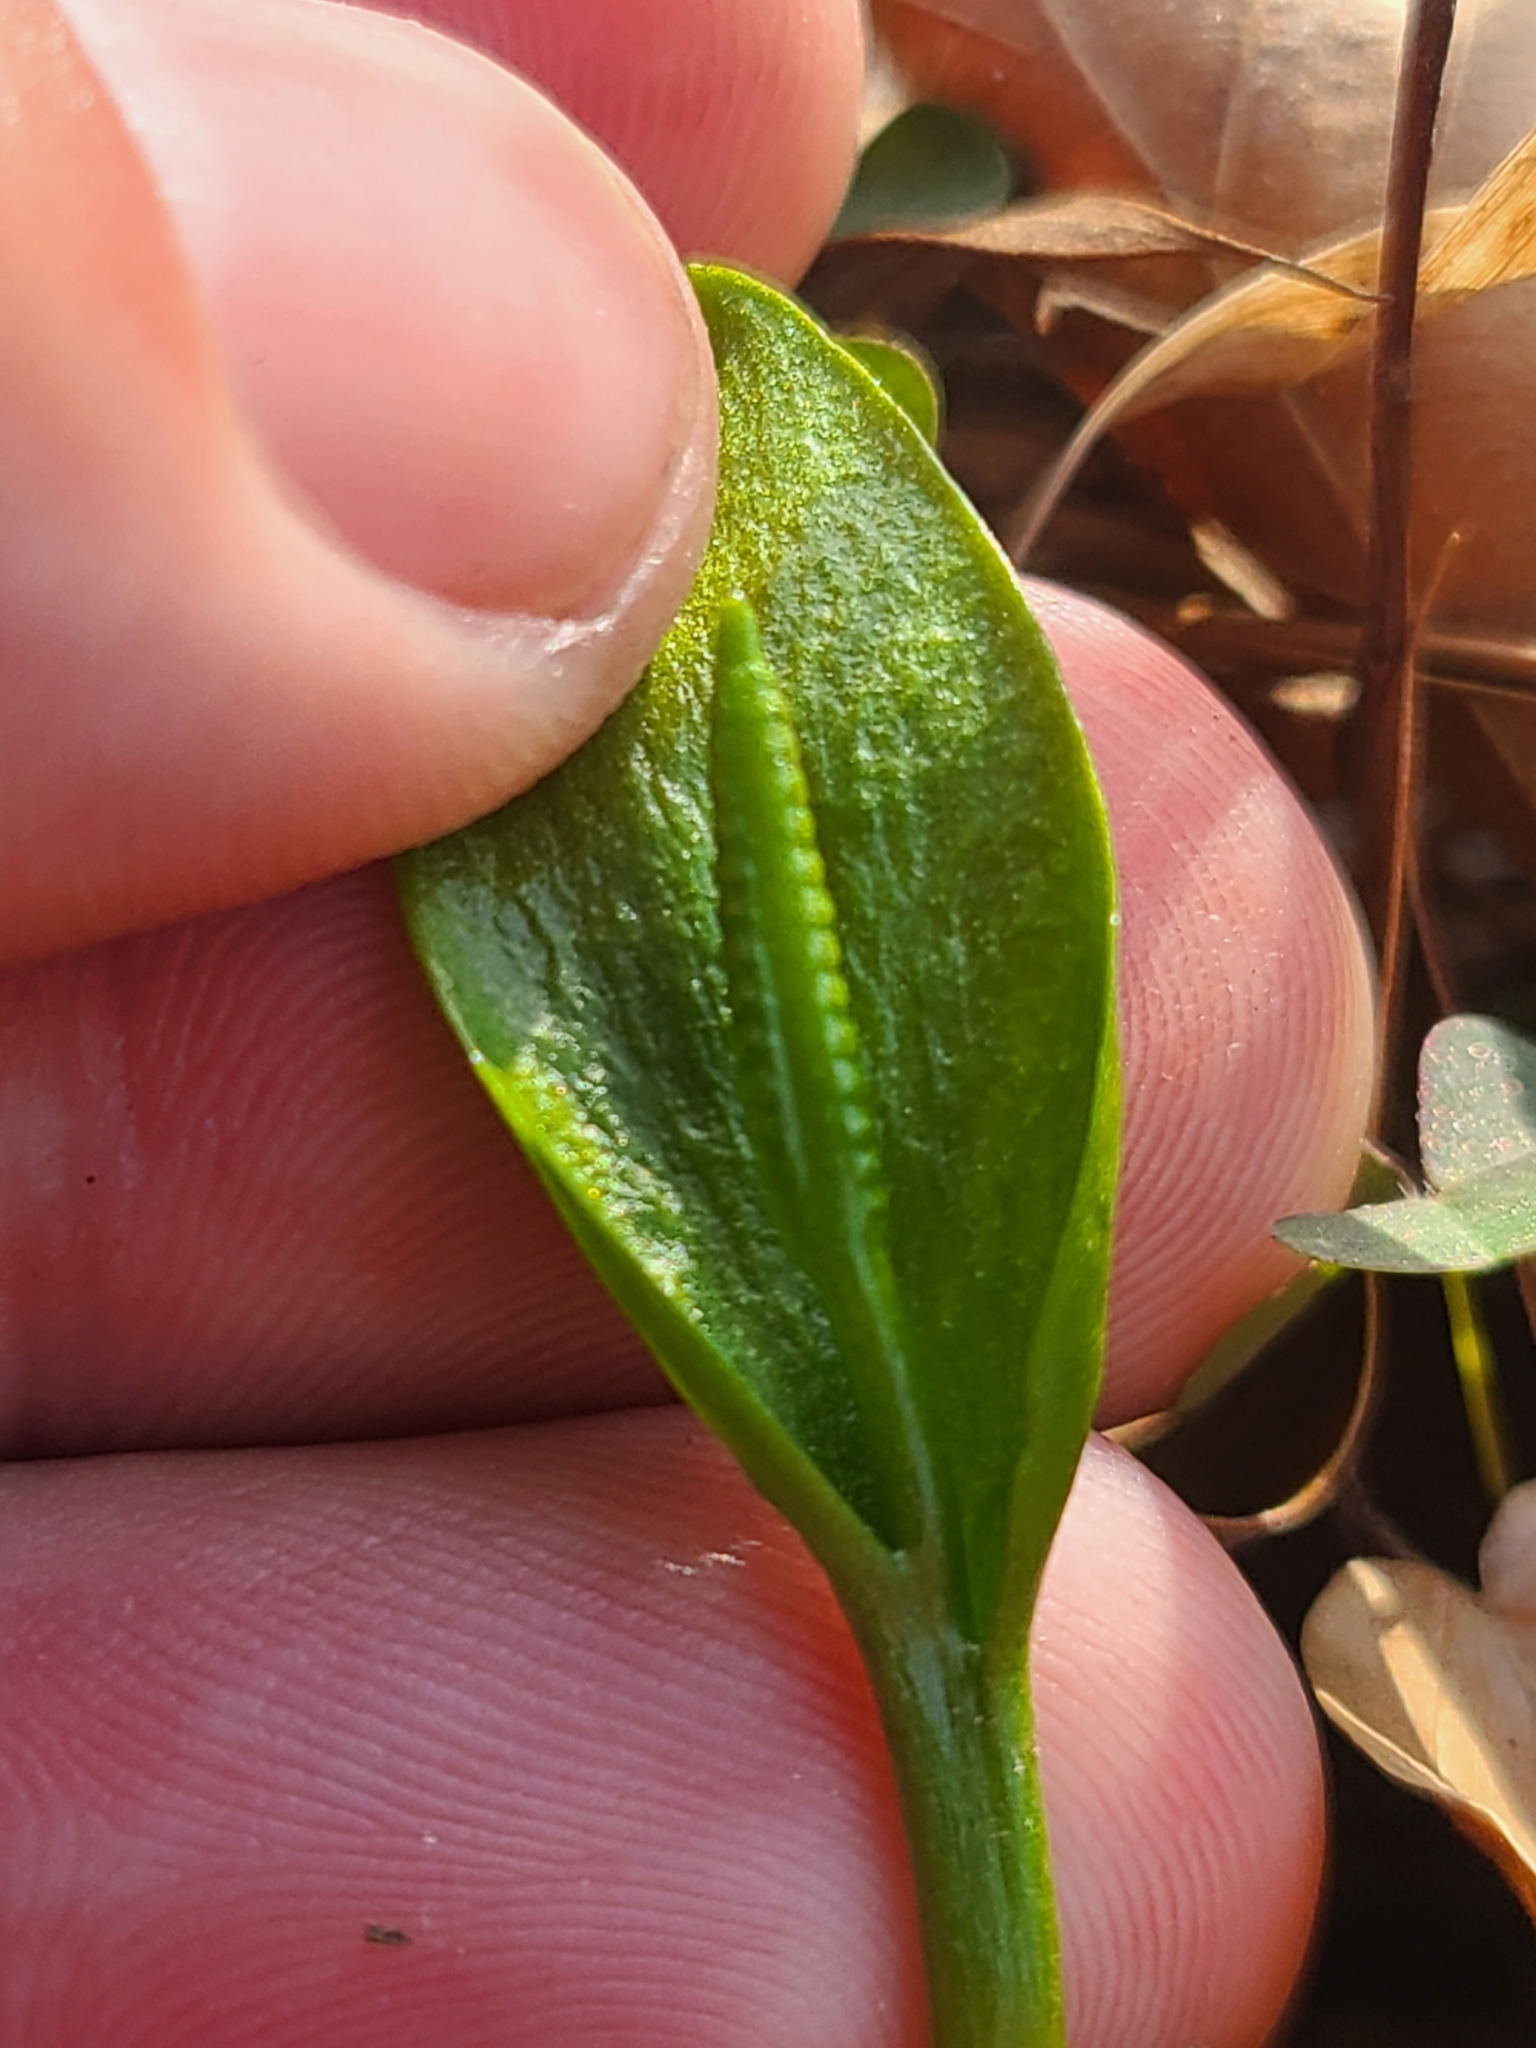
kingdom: Plantae
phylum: Tracheophyta
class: Polypodiopsida
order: Ophioglossales
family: Ophioglossaceae
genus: Ophioglossum
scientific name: Ophioglossum vulgatum
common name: Adder's-tongue
